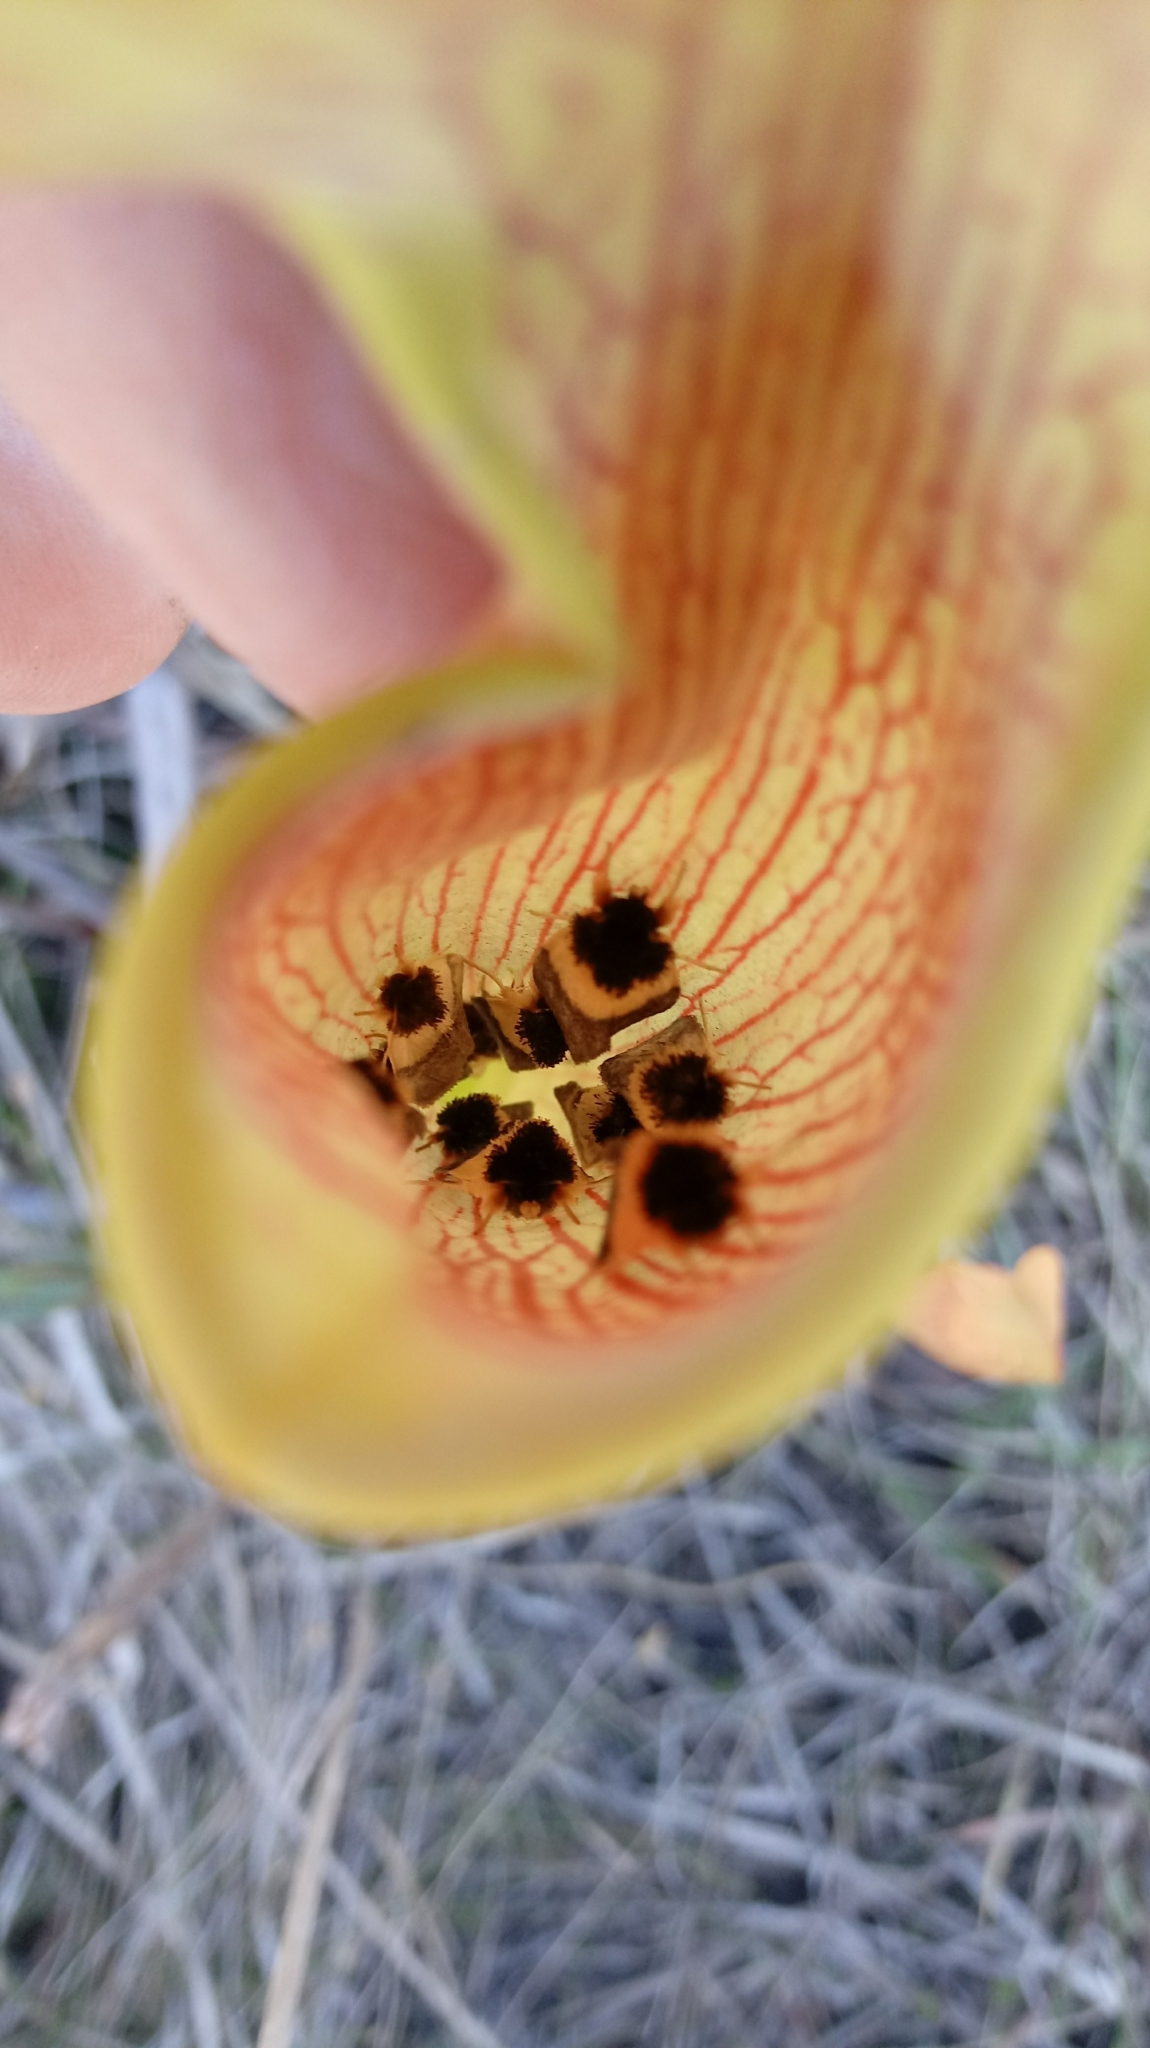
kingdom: Animalia
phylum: Arthropoda
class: Insecta
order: Lepidoptera
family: Noctuidae
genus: Exyra
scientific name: Exyra semicrocea
